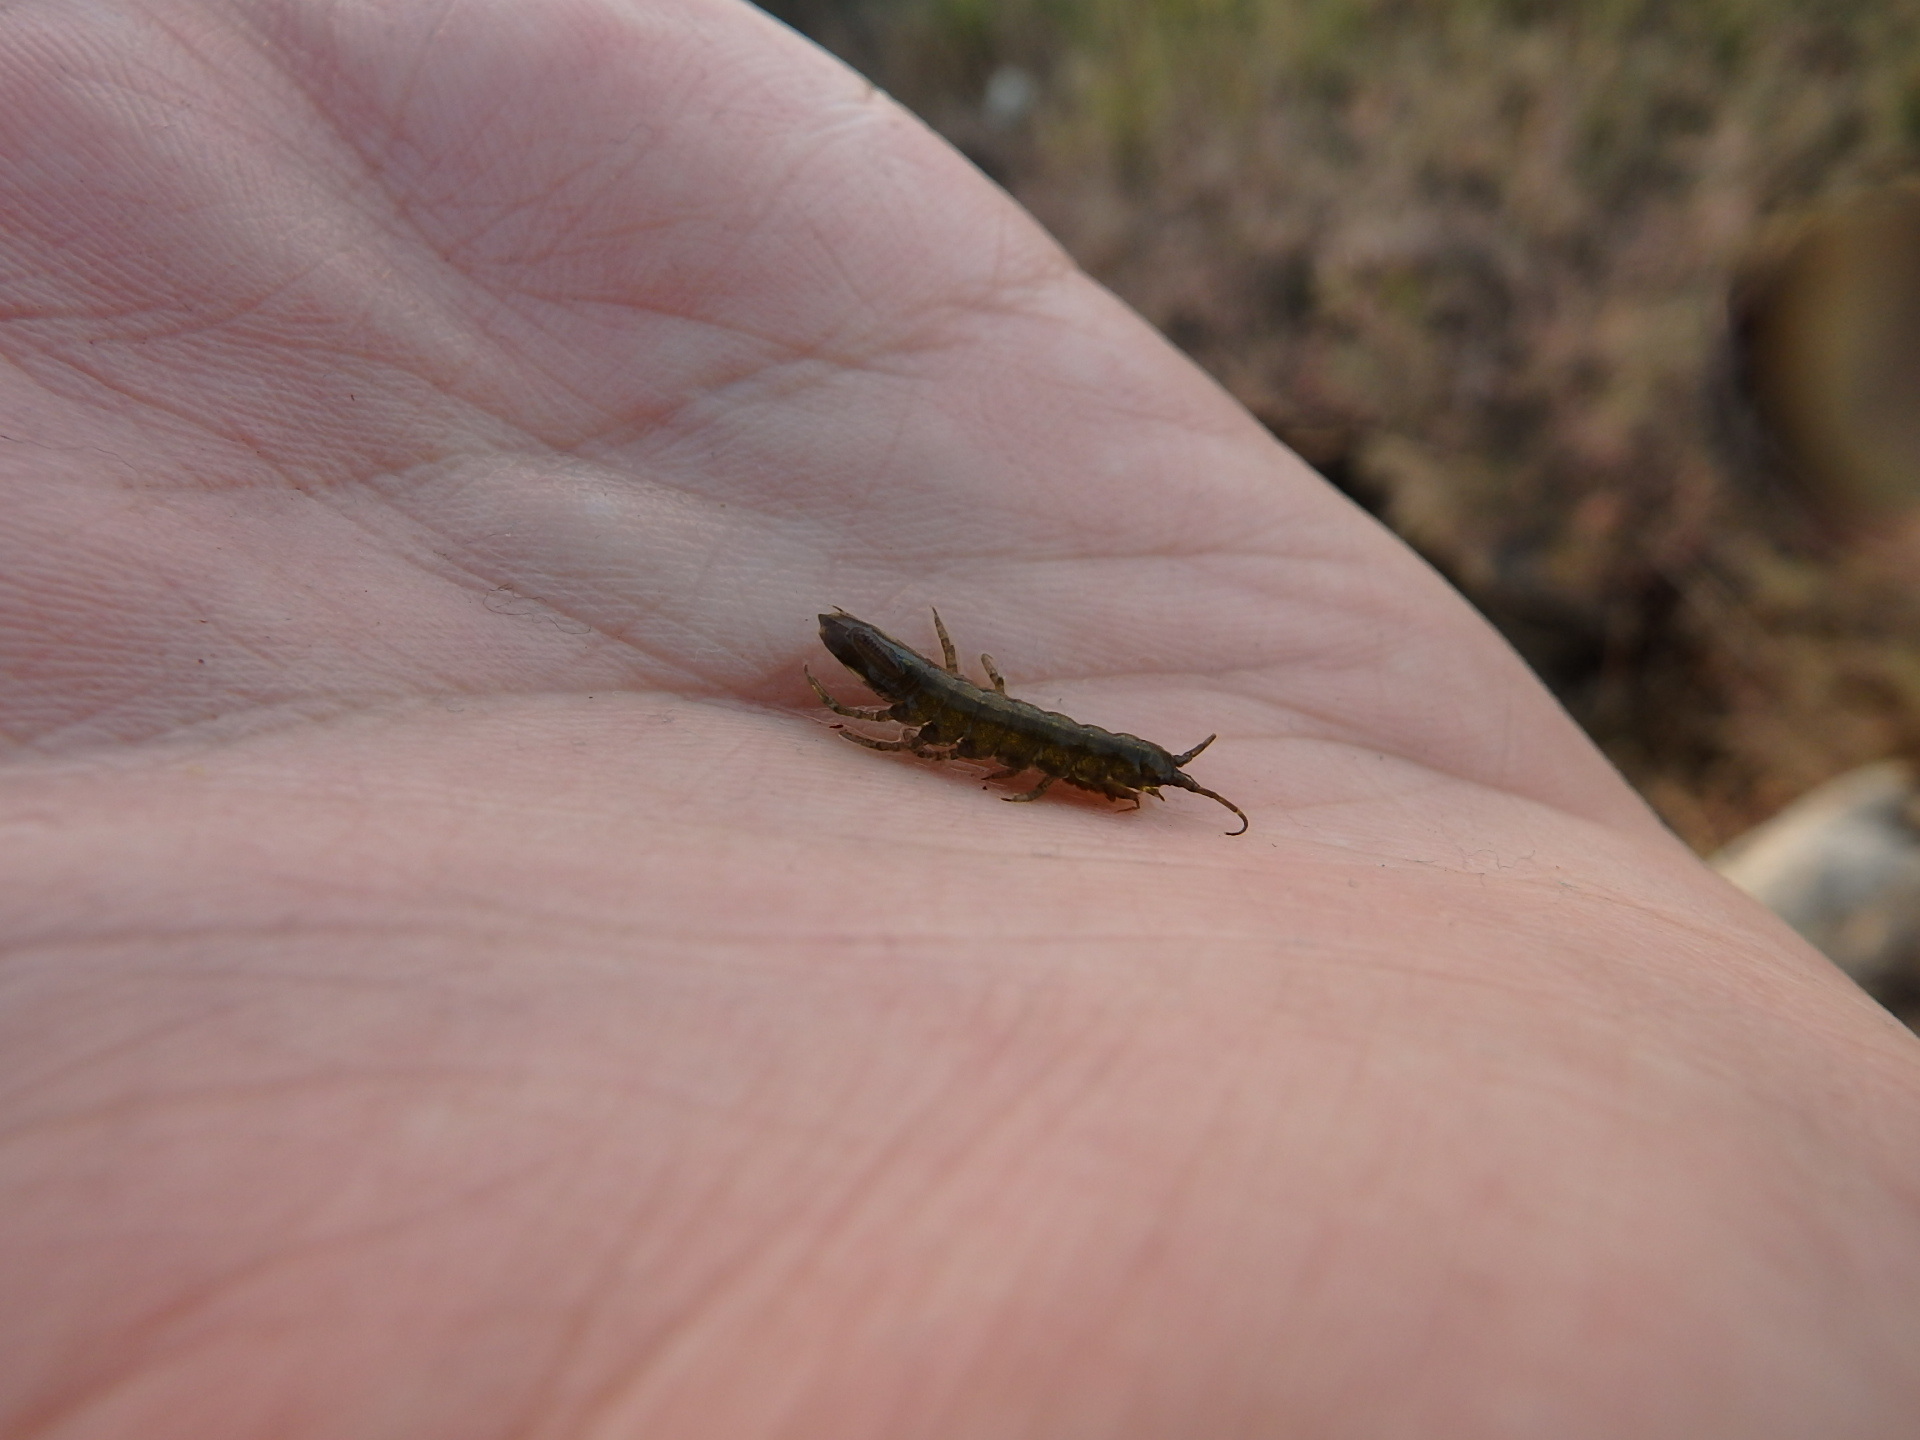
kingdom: Animalia
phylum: Arthropoda
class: Malacostraca
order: Isopoda
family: Idoteidae
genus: Idotea
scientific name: Idotea chelipes
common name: Clawfooted marine isopod
